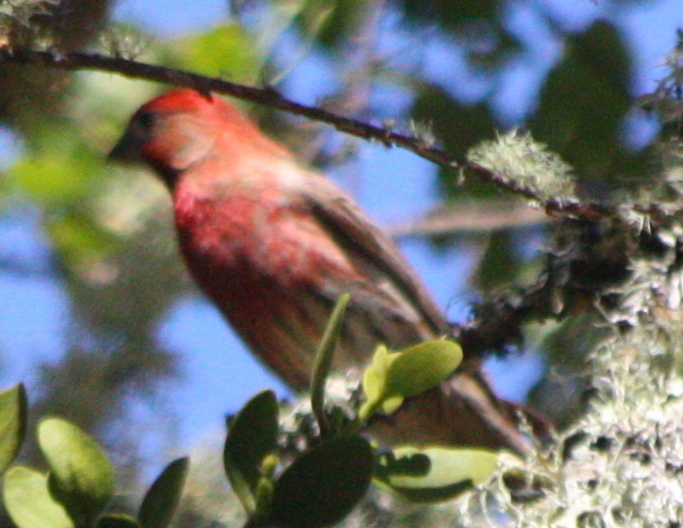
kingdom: Animalia
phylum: Chordata
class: Aves
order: Passeriformes
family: Fringillidae
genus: Haemorhous
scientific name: Haemorhous mexicanus
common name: House finch
